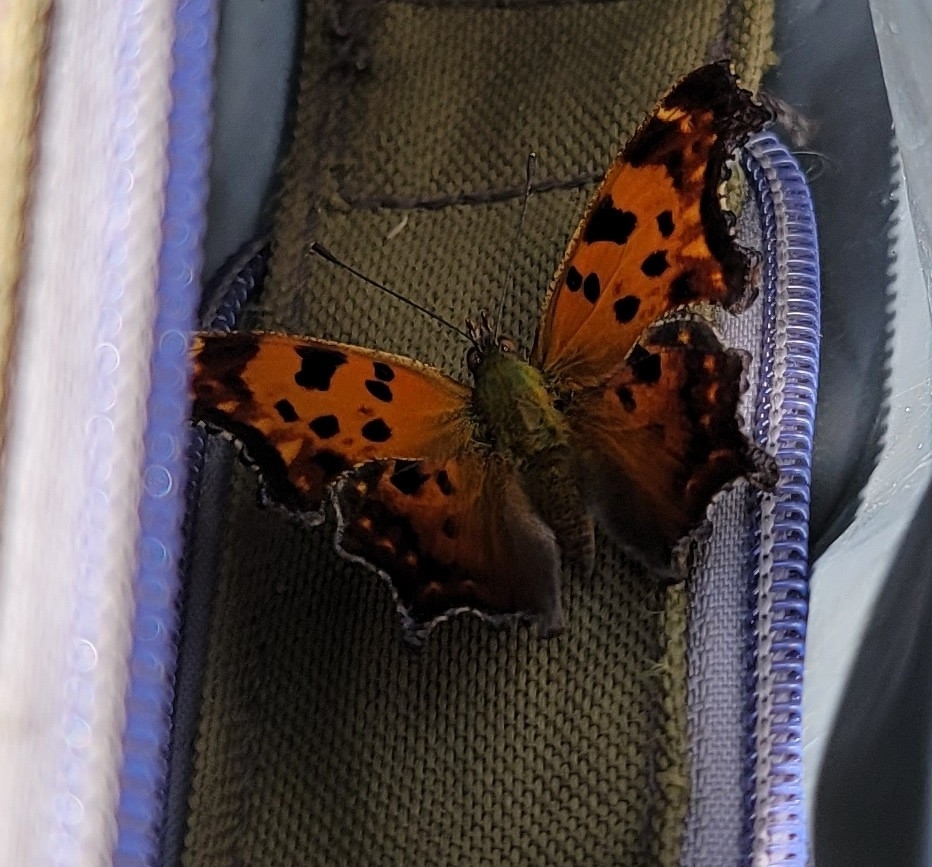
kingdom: Animalia
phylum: Arthropoda
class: Insecta
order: Lepidoptera
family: Nymphalidae
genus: Polygonia
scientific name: Polygonia comma
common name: Eastern comma
